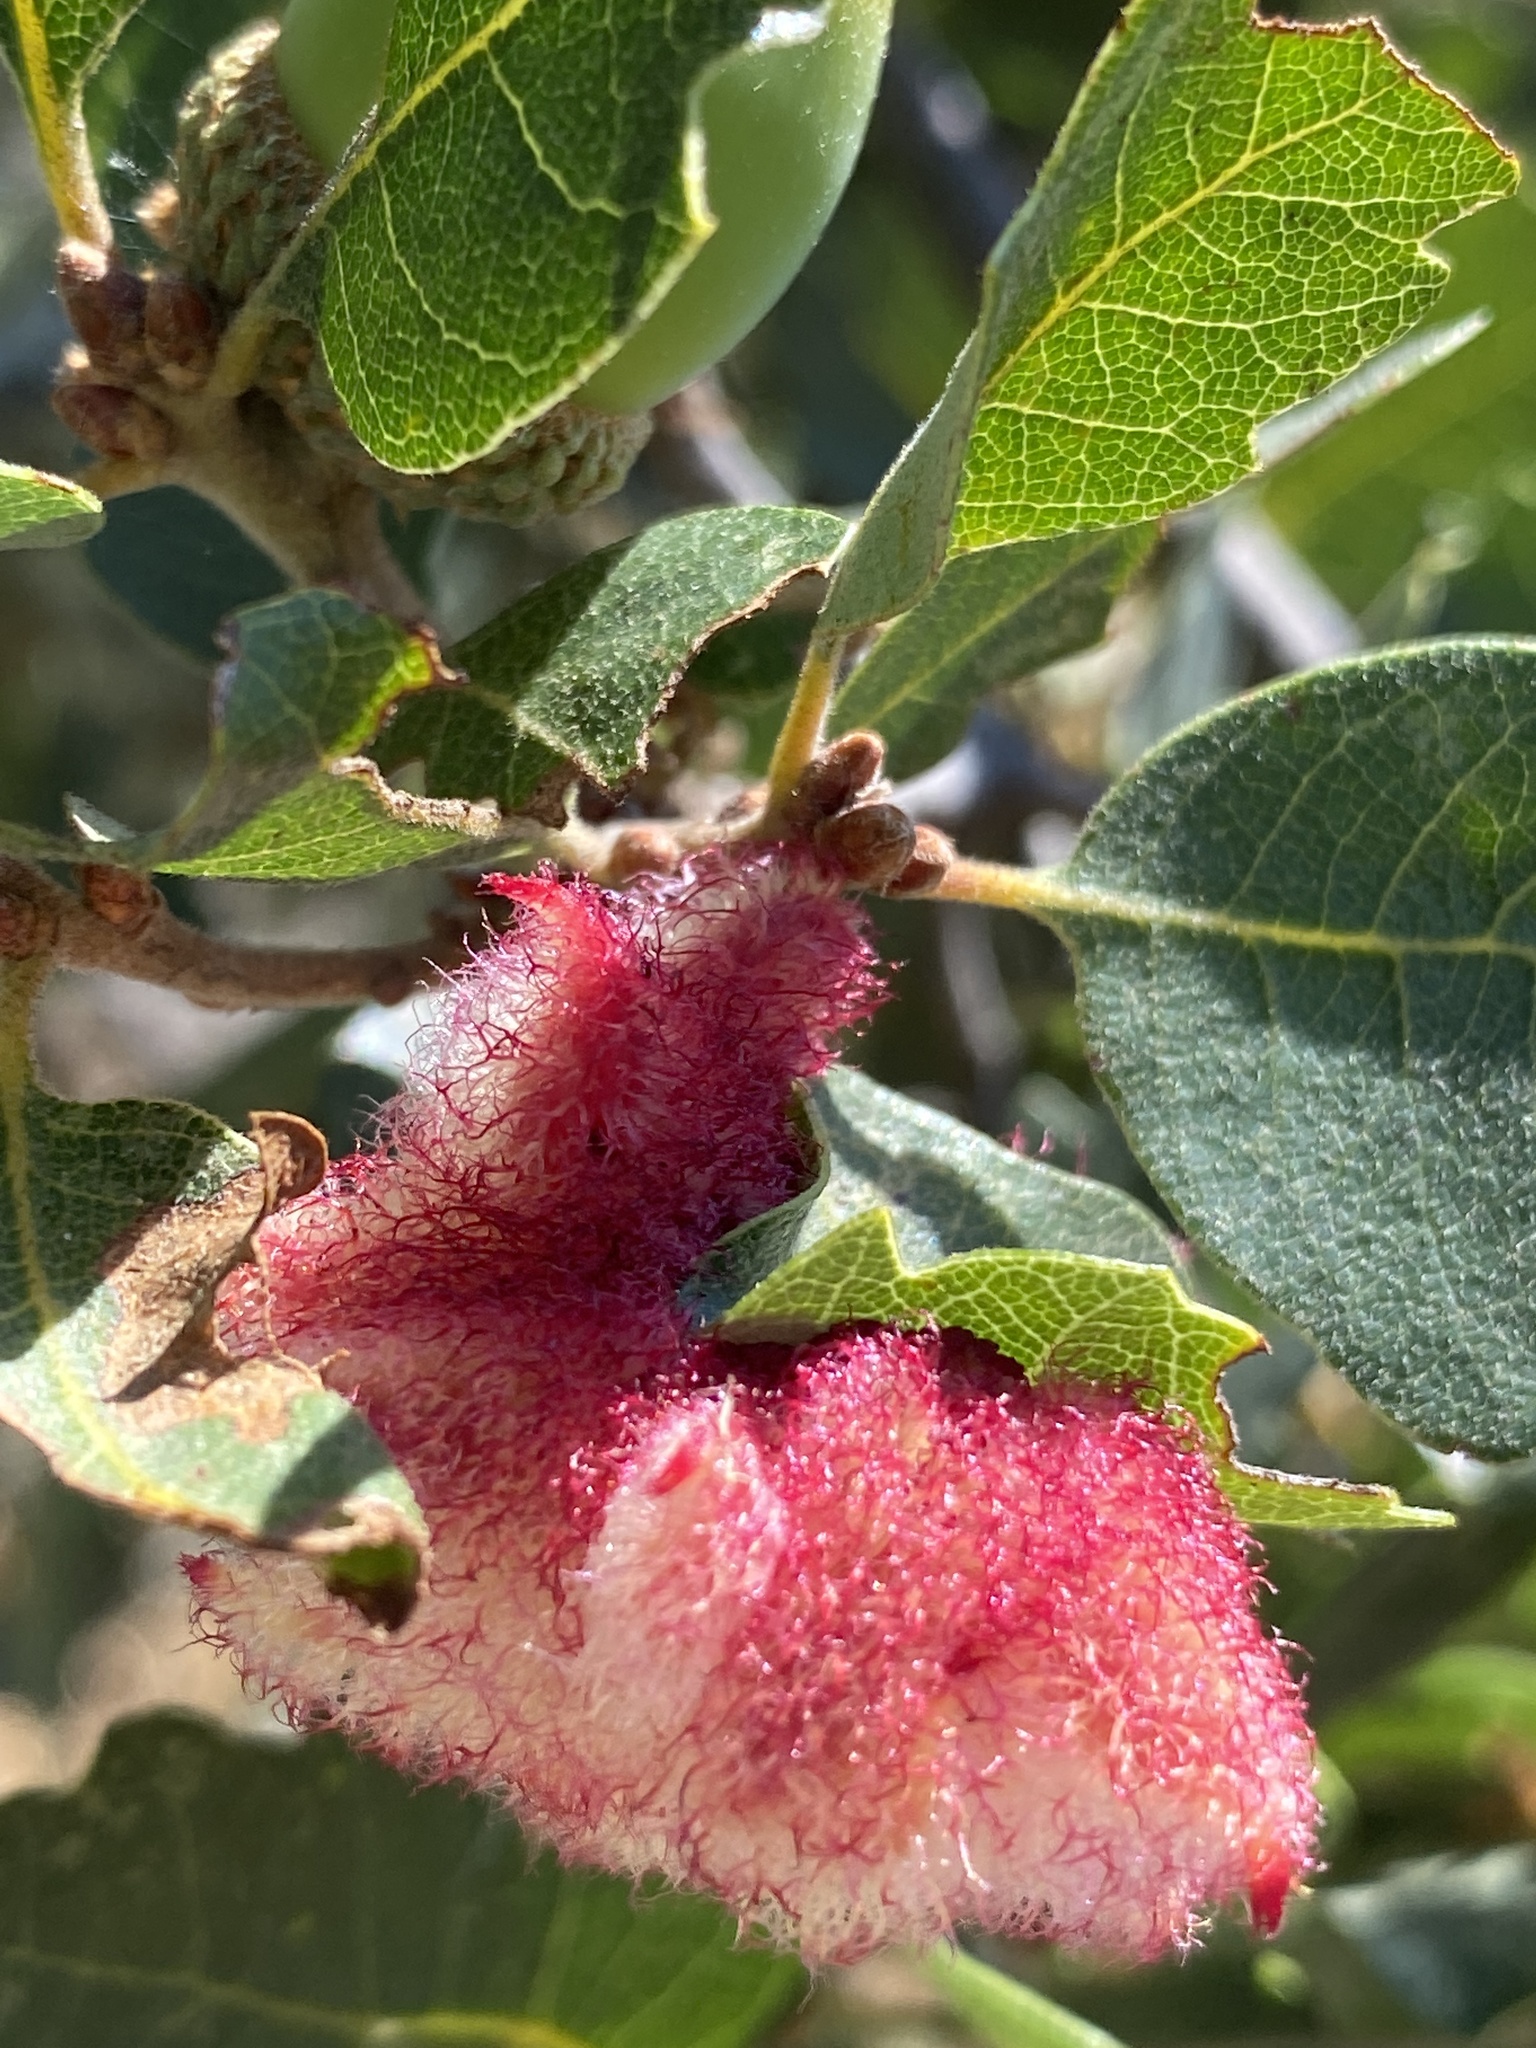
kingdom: Animalia
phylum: Arthropoda
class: Insecta
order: Hymenoptera
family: Cynipidae
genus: Andricus
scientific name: Andricus
